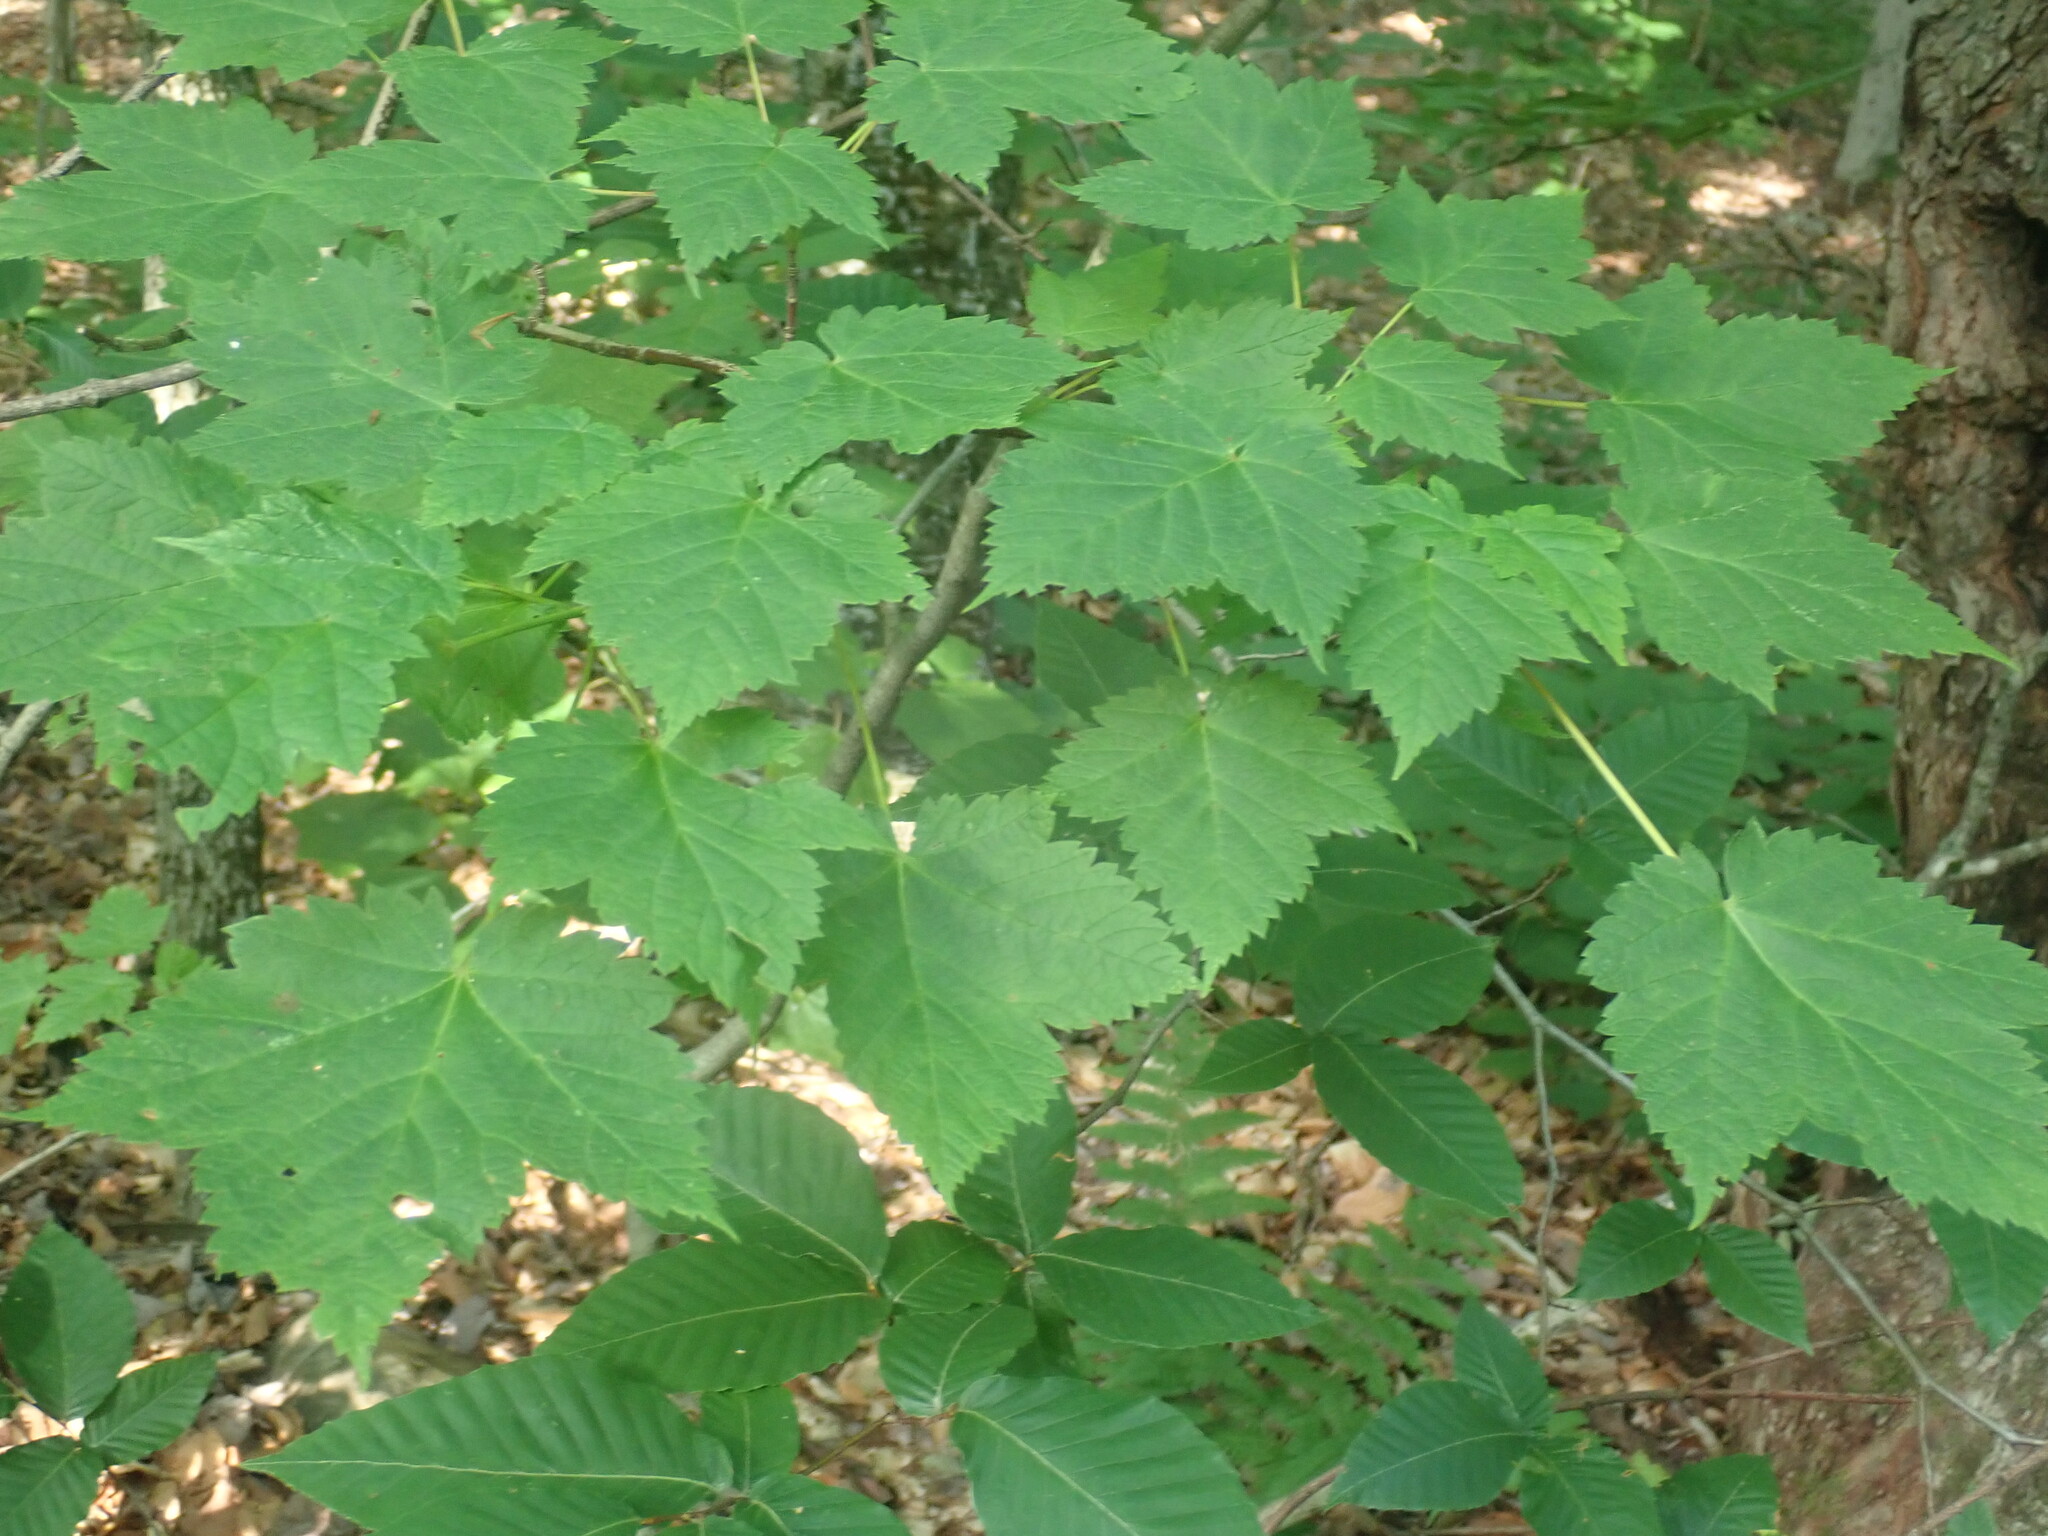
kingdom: Plantae
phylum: Tracheophyta
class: Magnoliopsida
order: Sapindales
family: Sapindaceae
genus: Acer
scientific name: Acer spicatum
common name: Mountain maple
